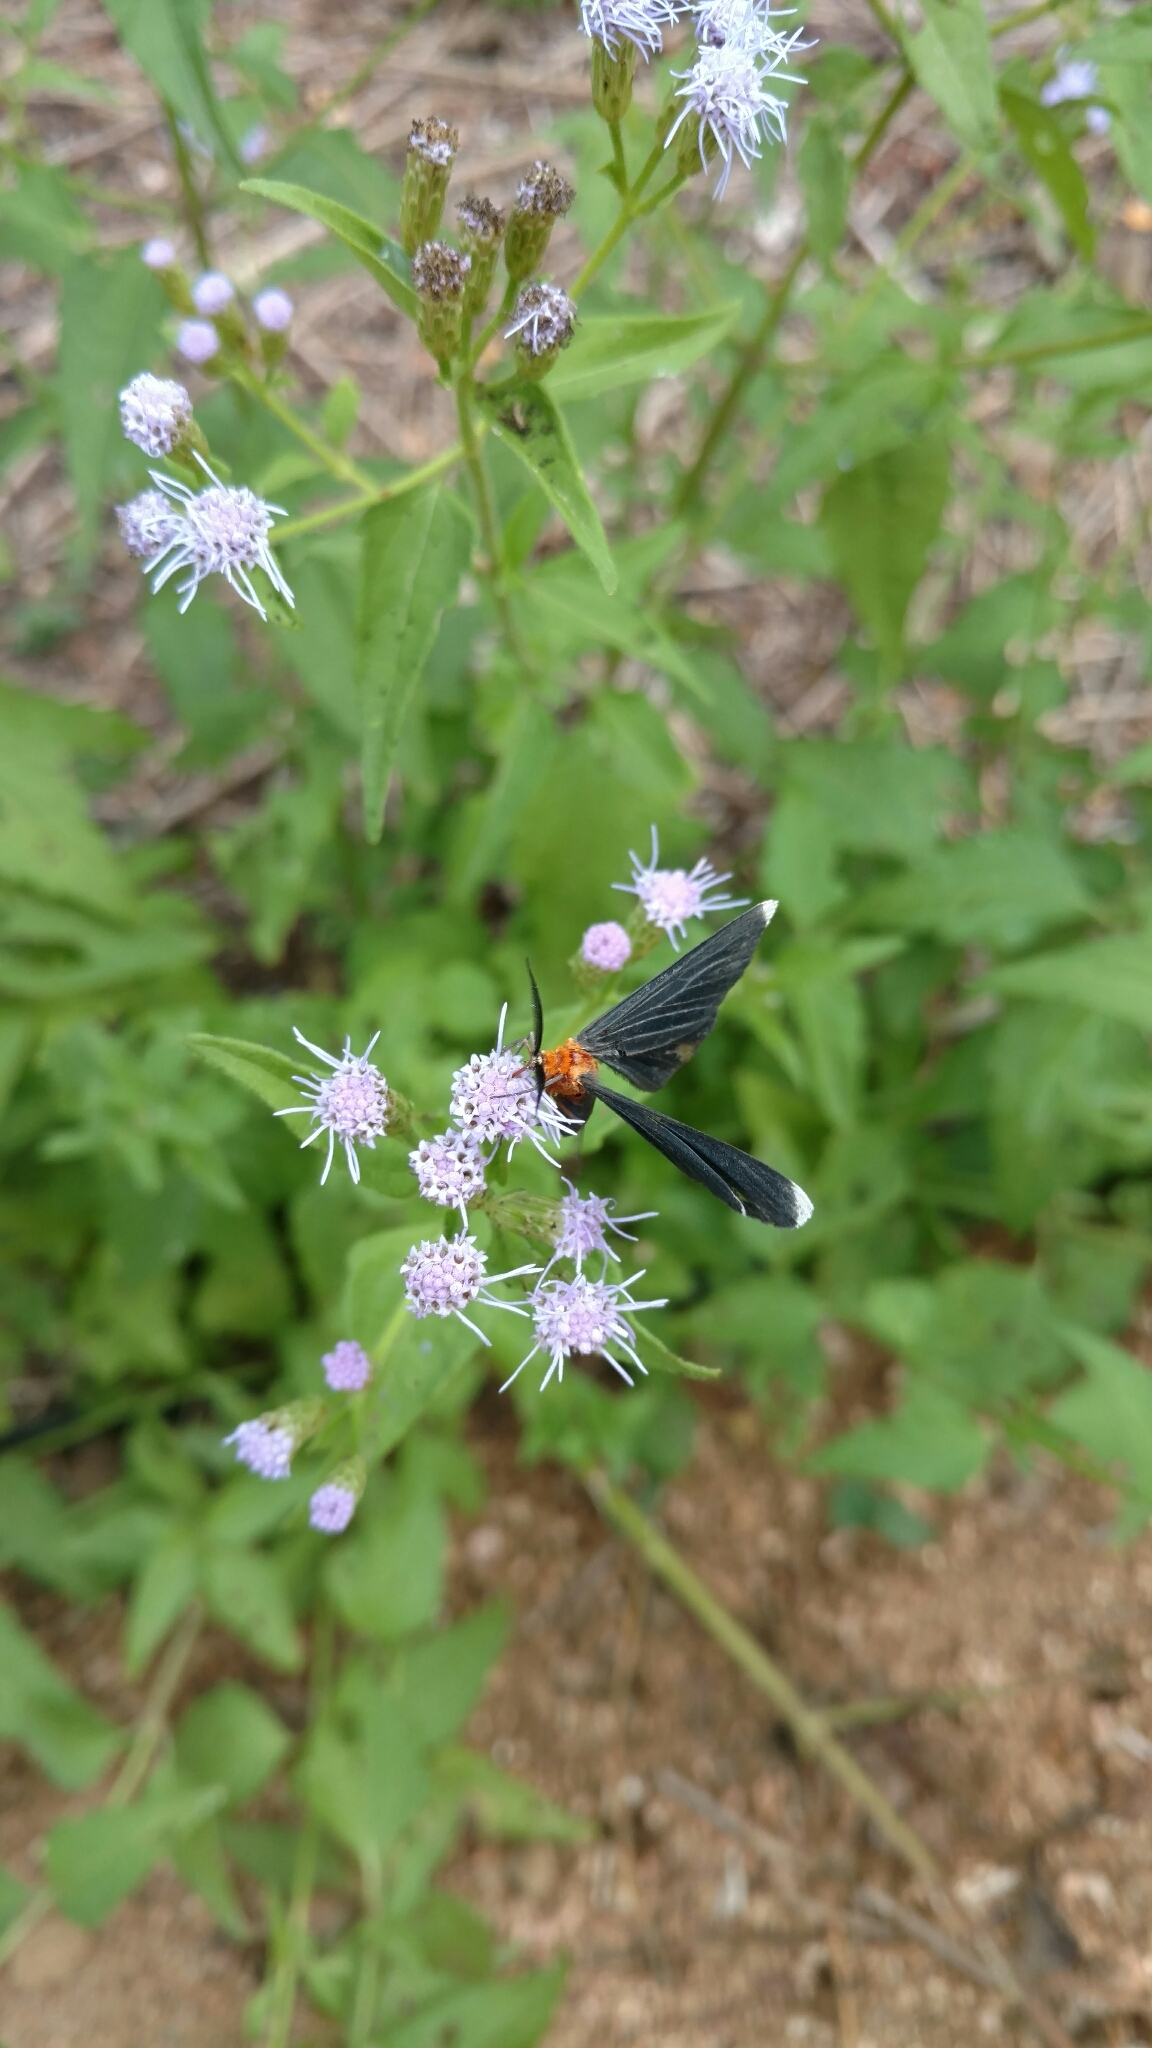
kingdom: Animalia
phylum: Arthropoda
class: Insecta
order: Lepidoptera
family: Geometridae
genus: Melanchroia
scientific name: Melanchroia chephise
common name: White-tipped black
